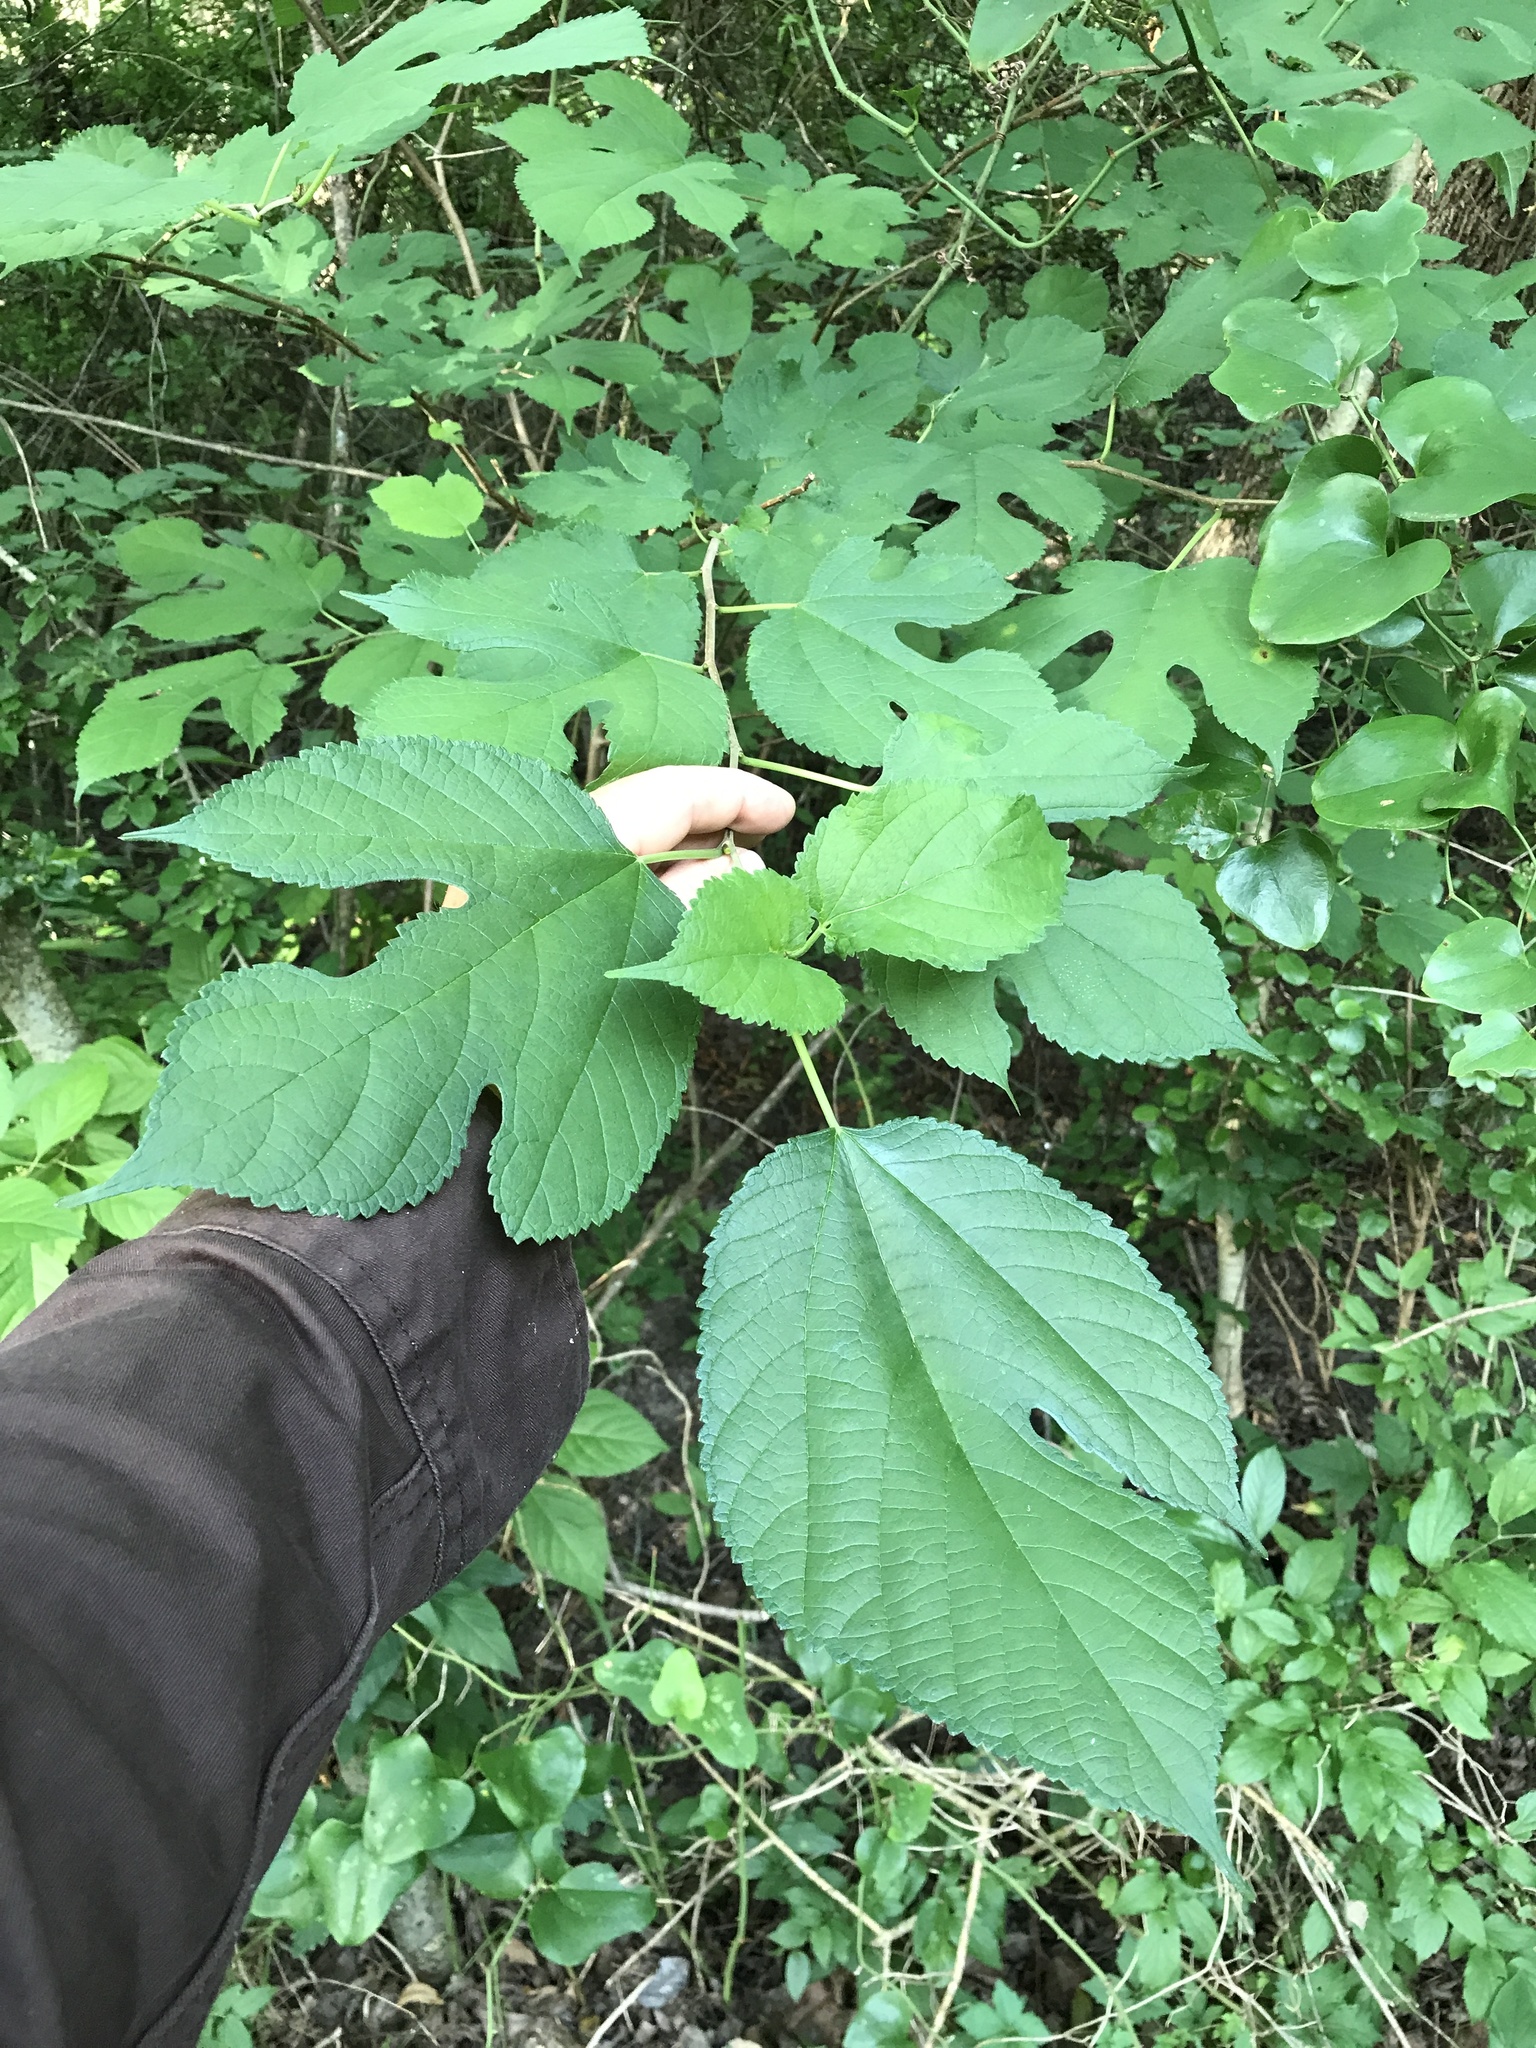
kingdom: Plantae
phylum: Tracheophyta
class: Magnoliopsida
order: Rosales
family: Moraceae
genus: Morus
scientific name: Morus rubra
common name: Red mulberry
